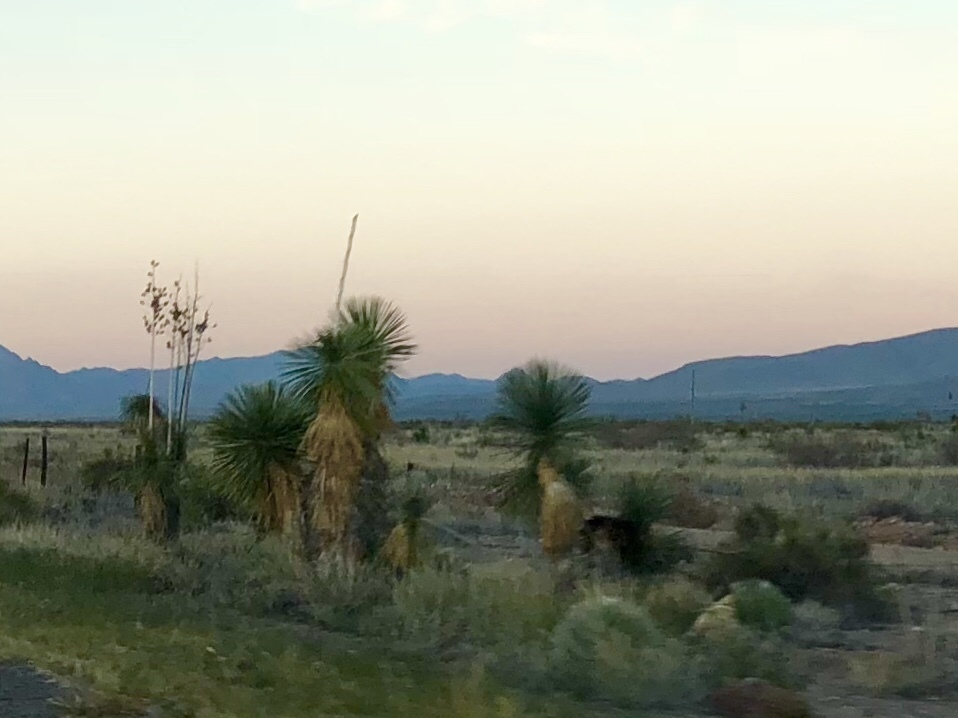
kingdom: Plantae
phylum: Tracheophyta
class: Liliopsida
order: Asparagales
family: Asparagaceae
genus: Yucca
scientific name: Yucca elata
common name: Palmella
